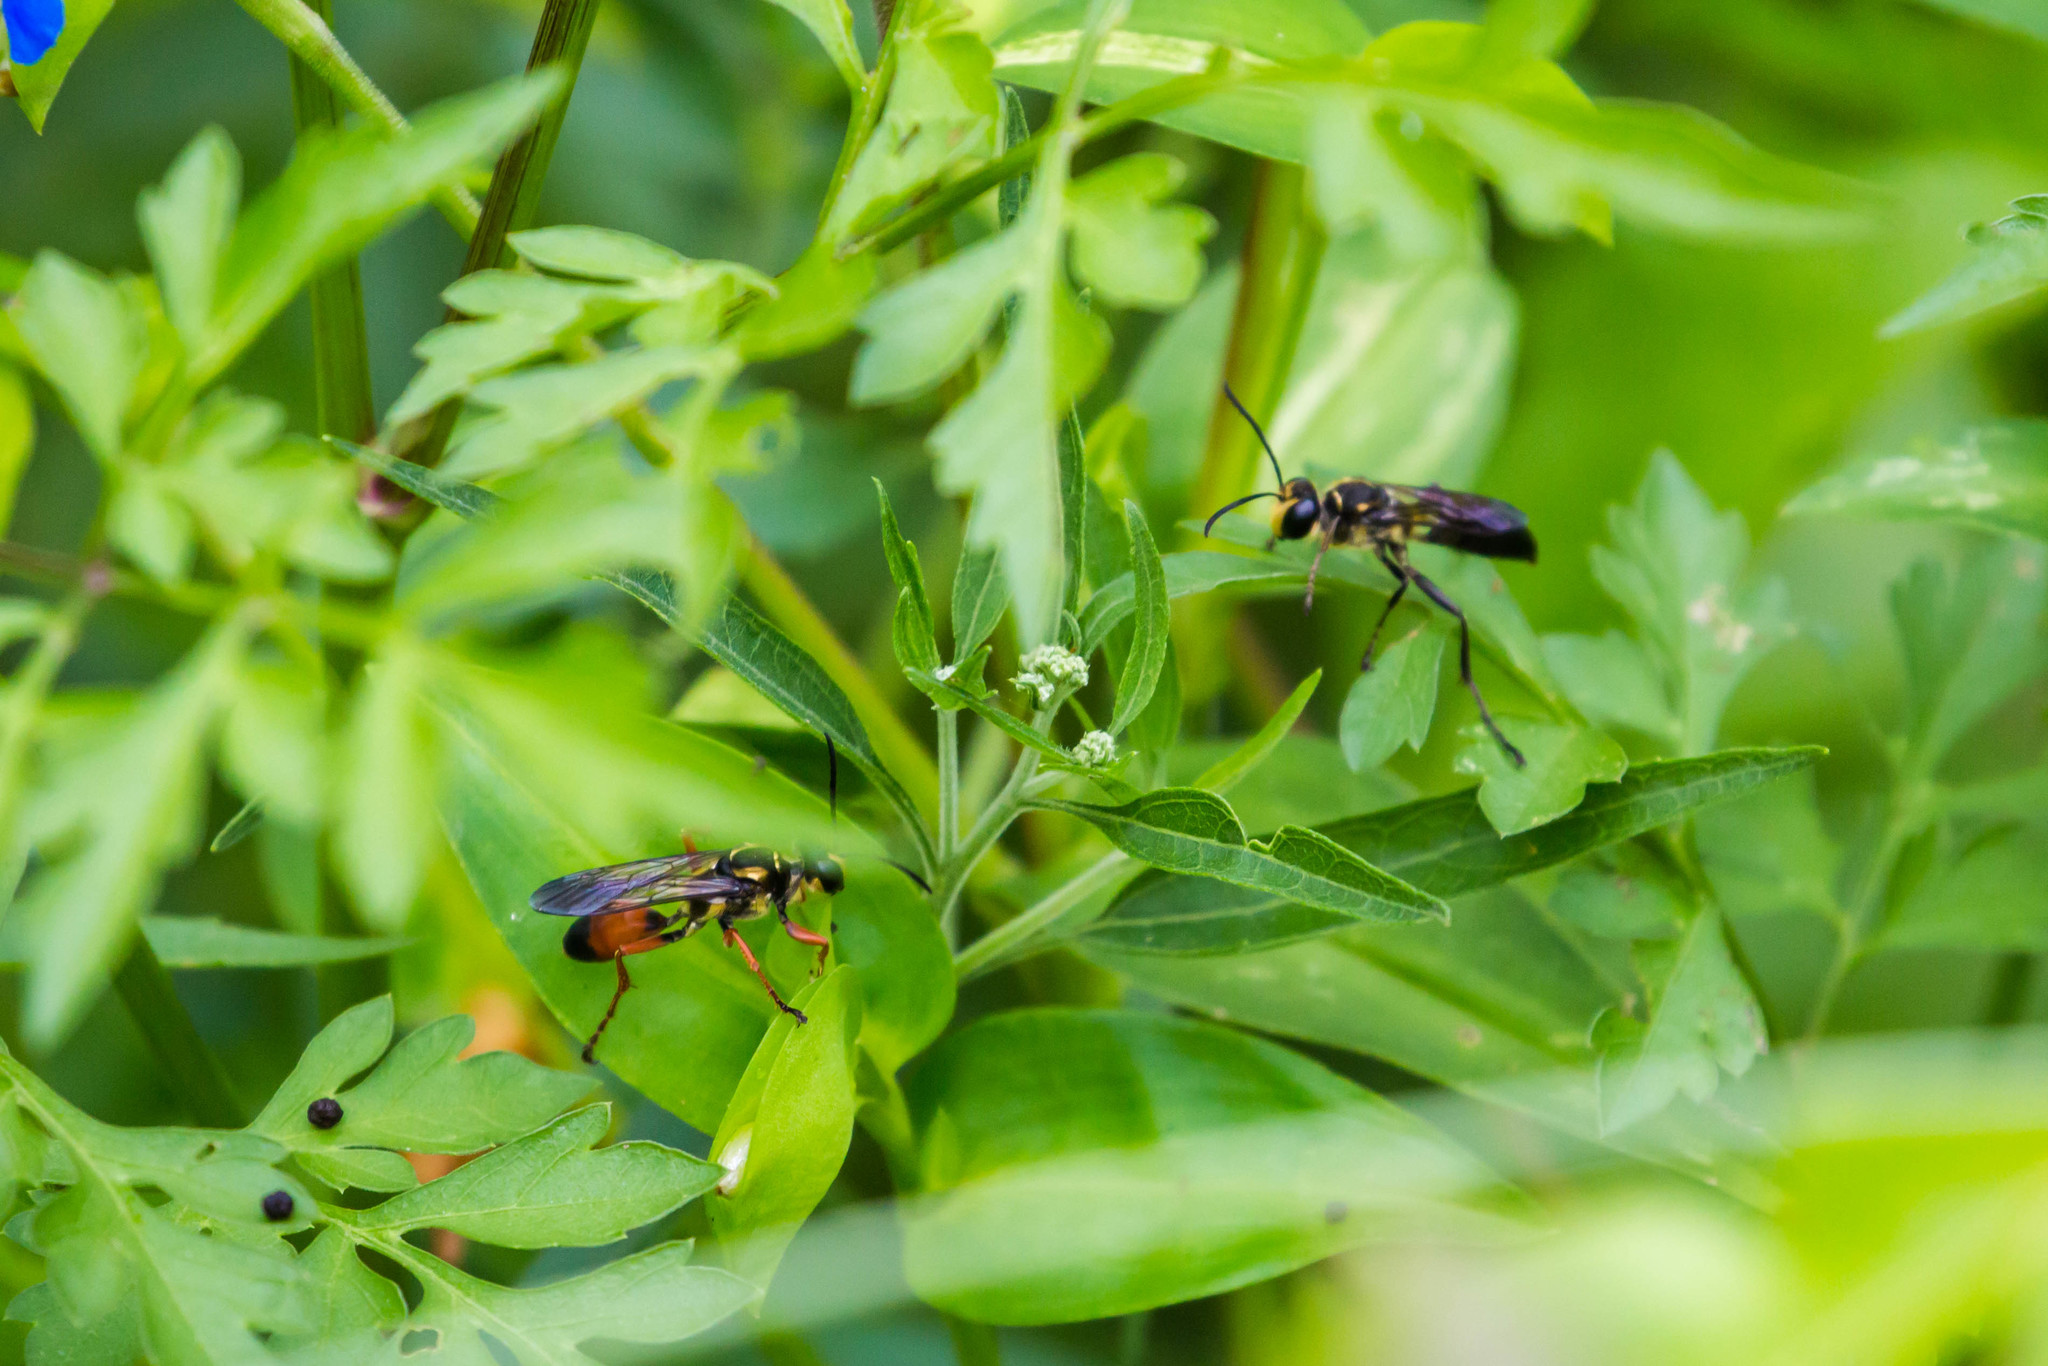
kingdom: Animalia
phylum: Arthropoda
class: Insecta
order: Hymenoptera
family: Sphecidae
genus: Sphex
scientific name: Sphex habenus
